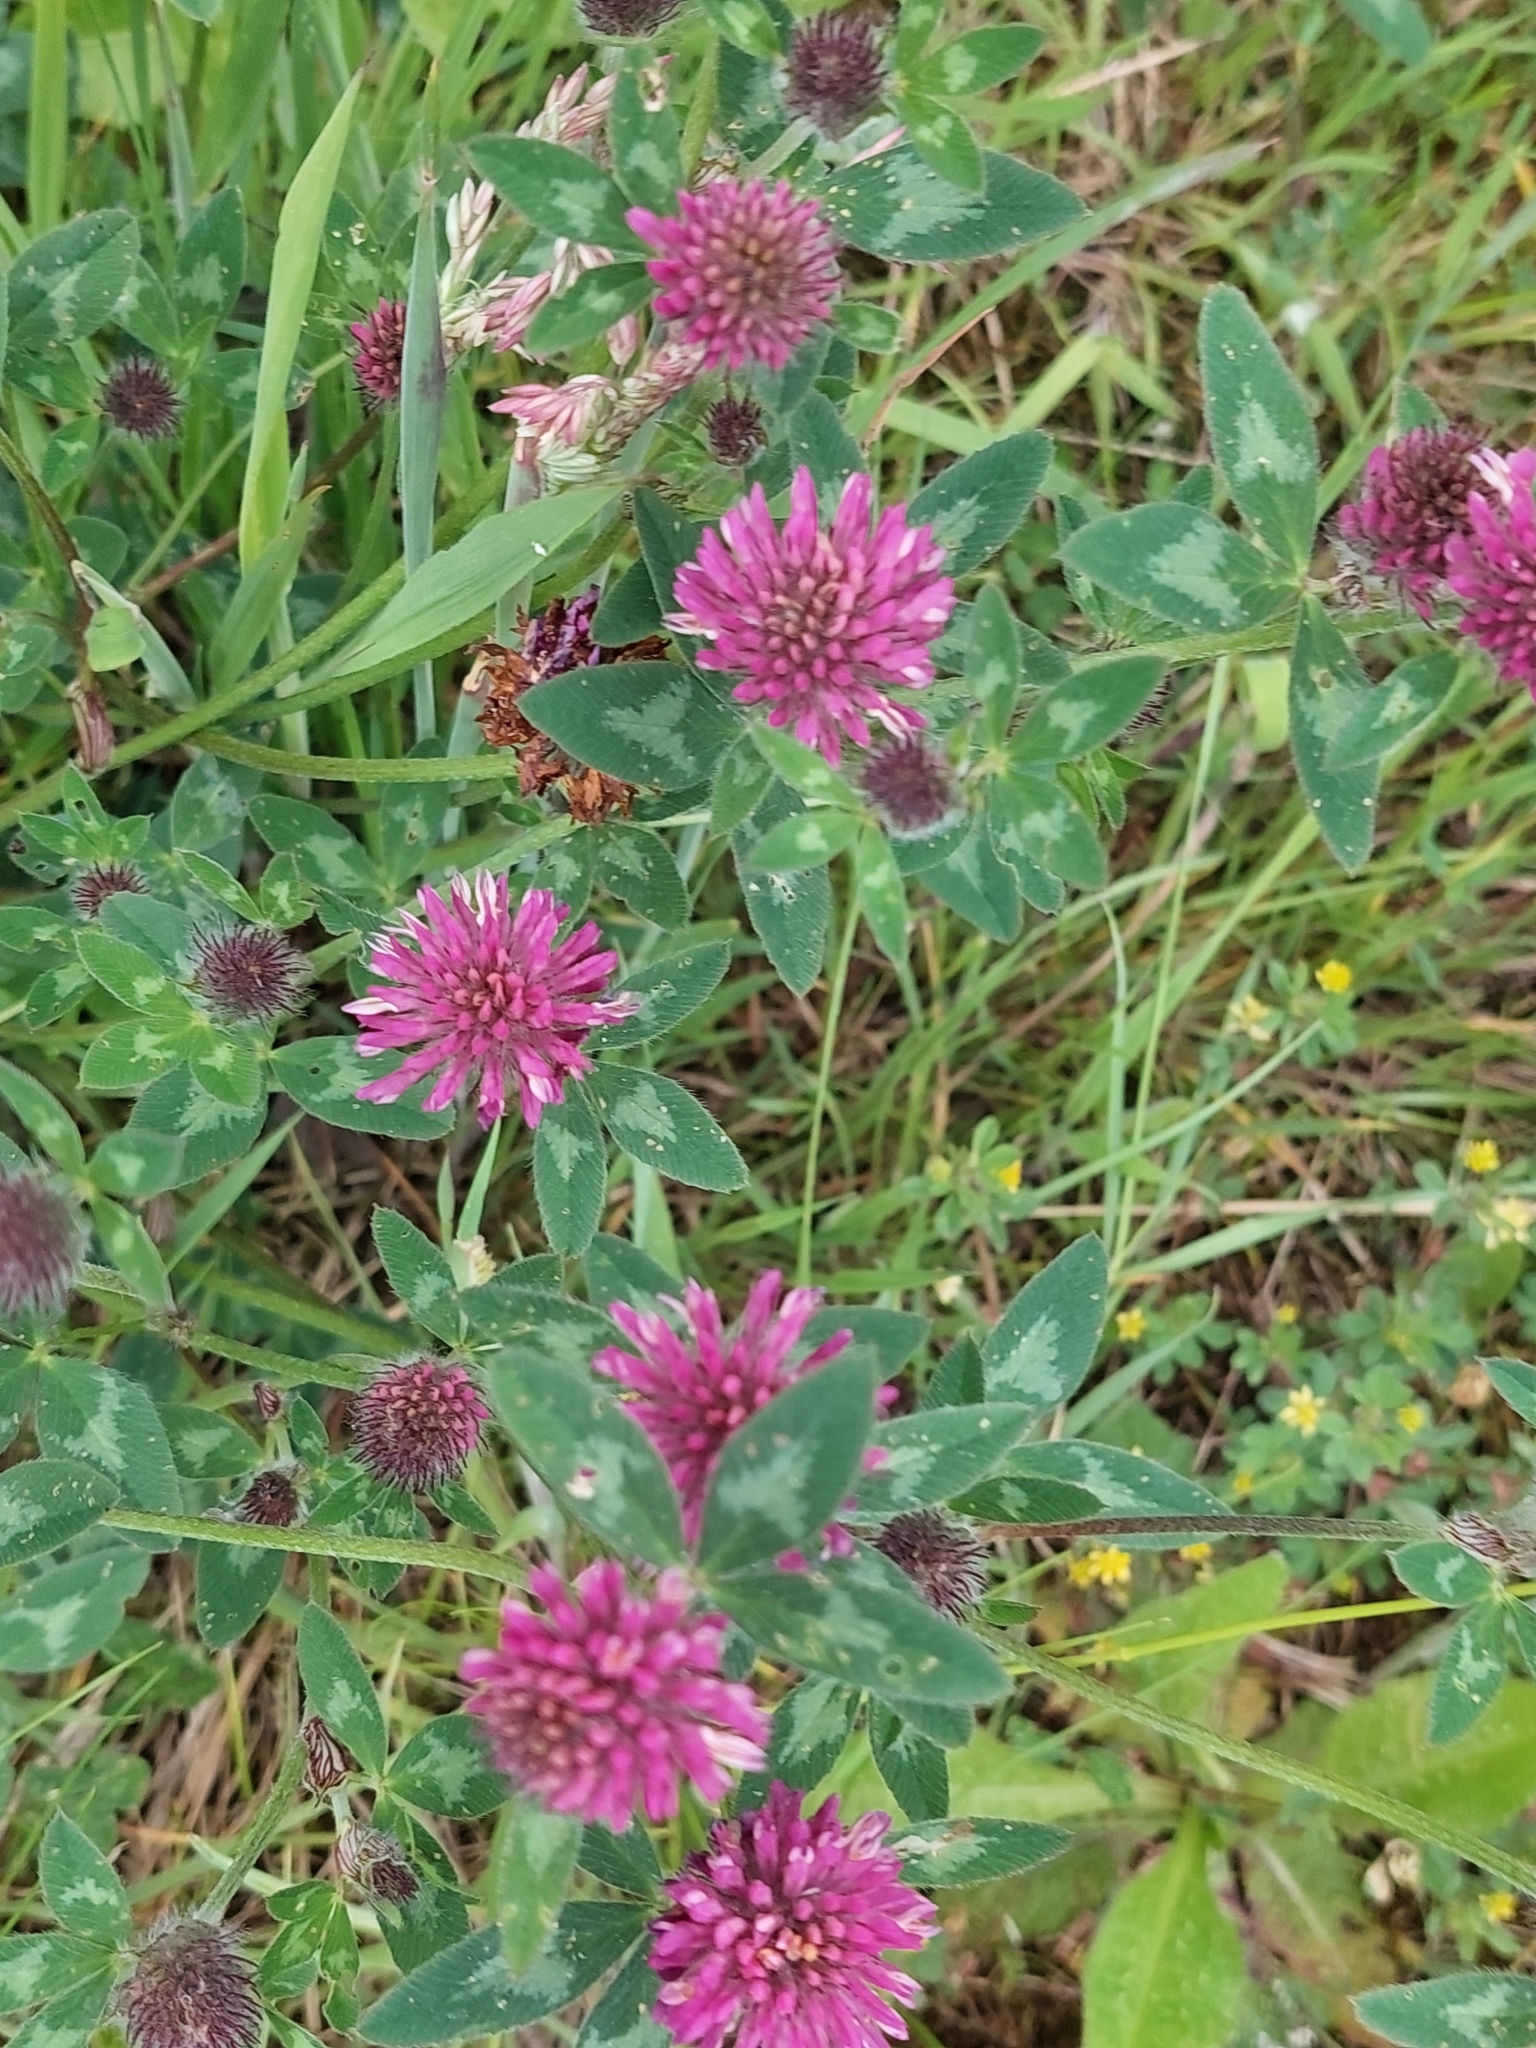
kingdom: Plantae
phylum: Tracheophyta
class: Magnoliopsida
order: Fabales
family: Fabaceae
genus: Trifolium
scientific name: Trifolium pratense
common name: Red clover
